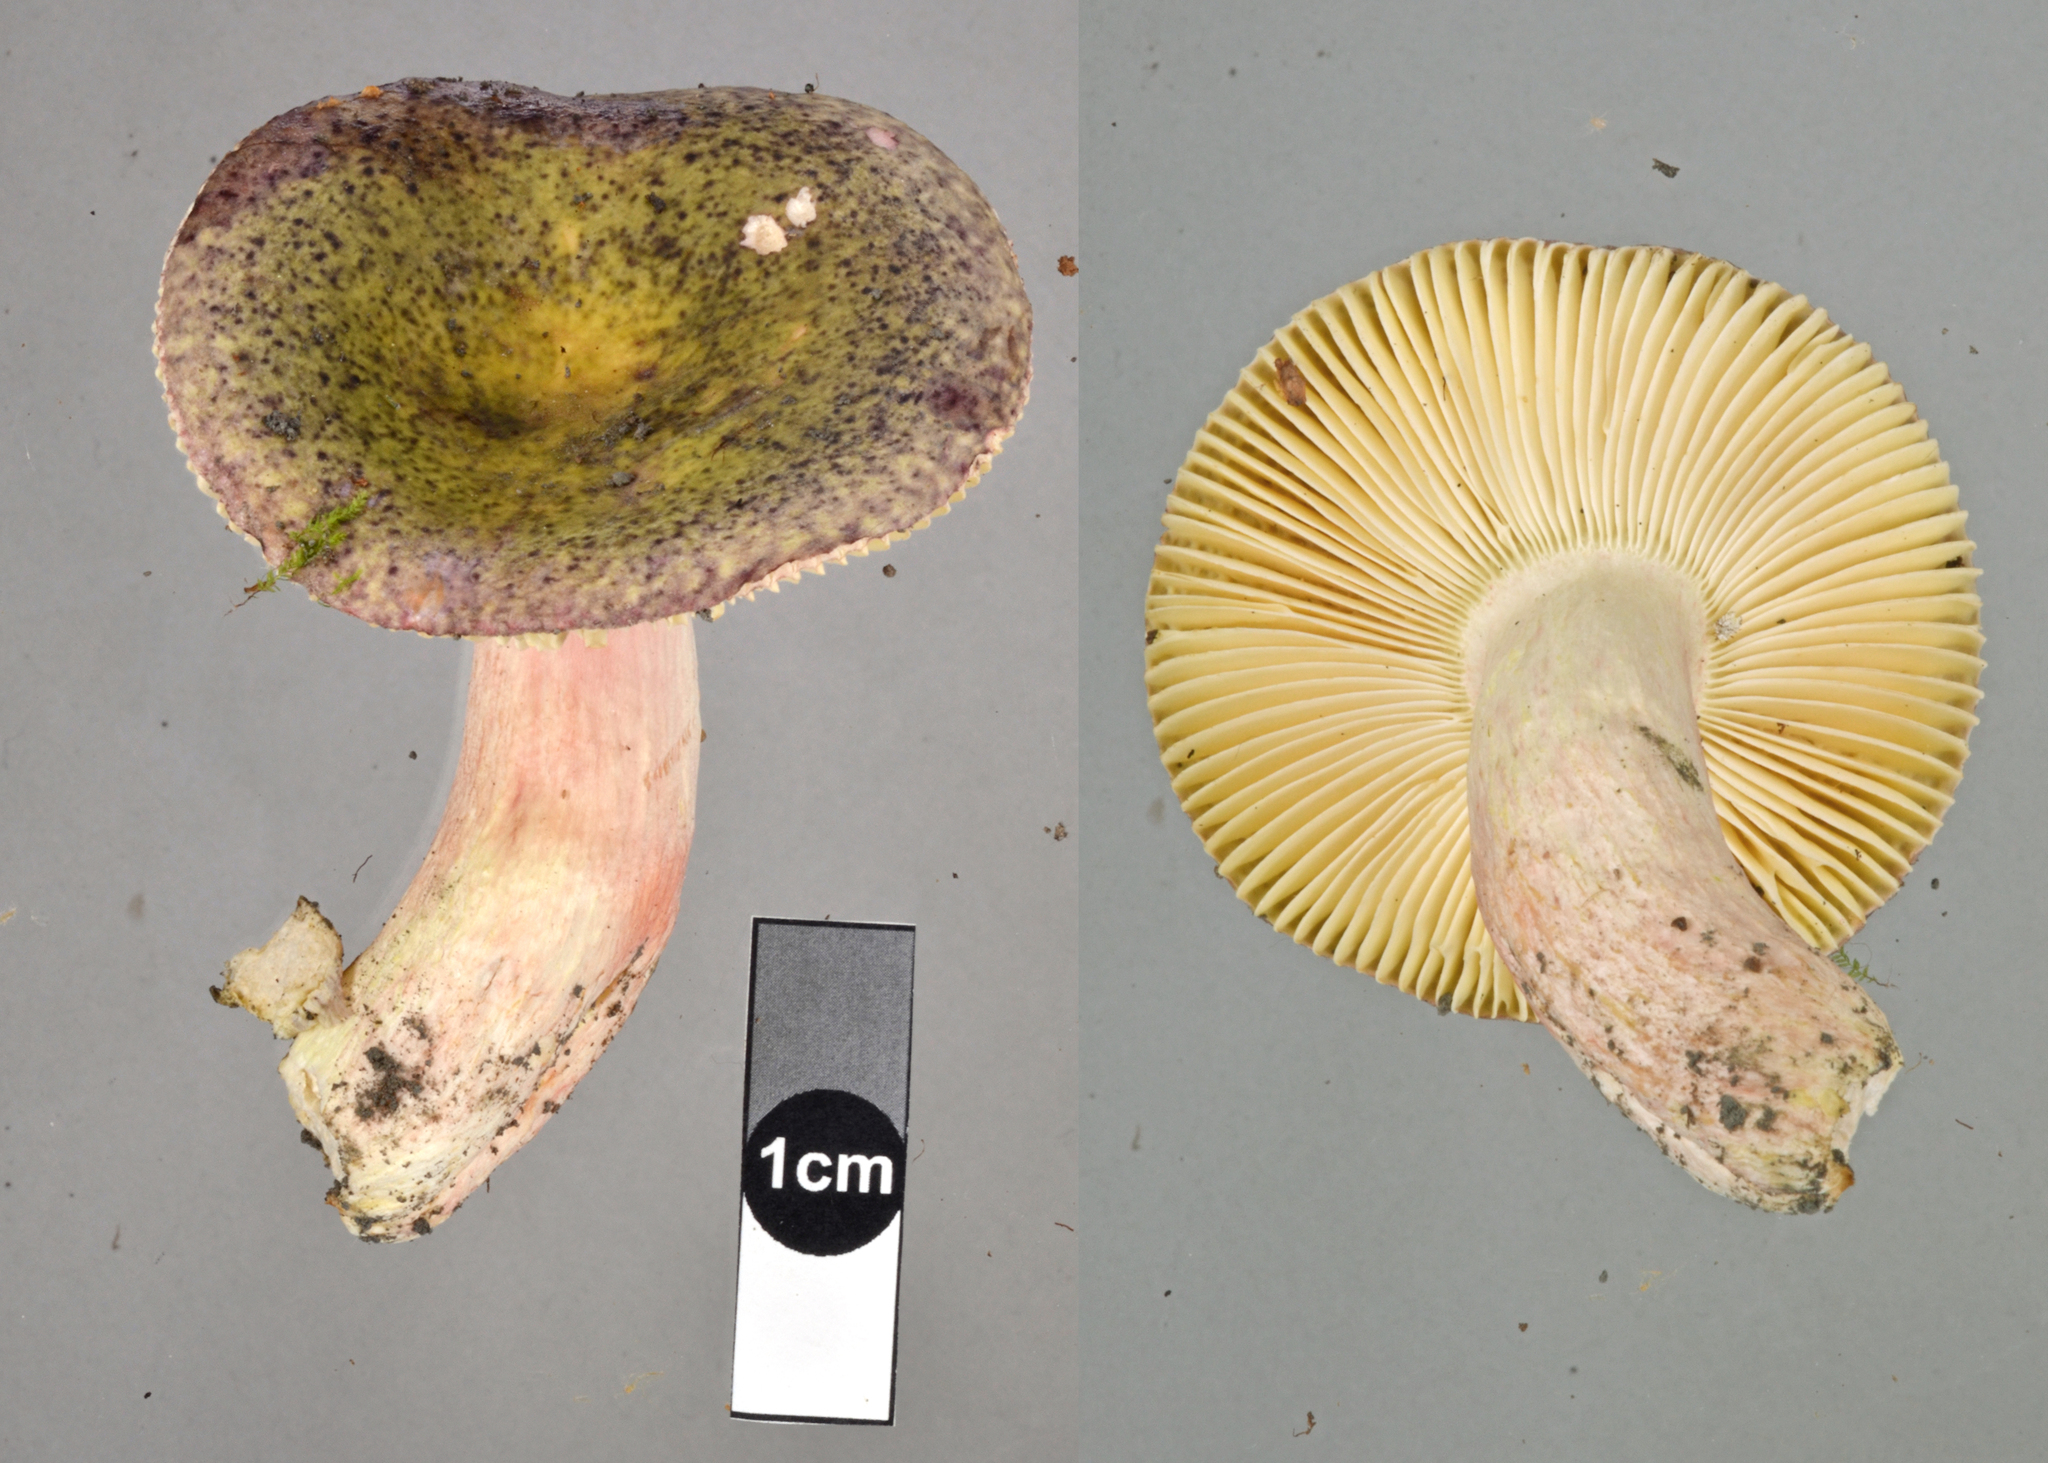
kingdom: Fungi
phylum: Basidiomycota
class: Agaricomycetes
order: Russulales
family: Russulaceae
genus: Russula
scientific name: Russula
